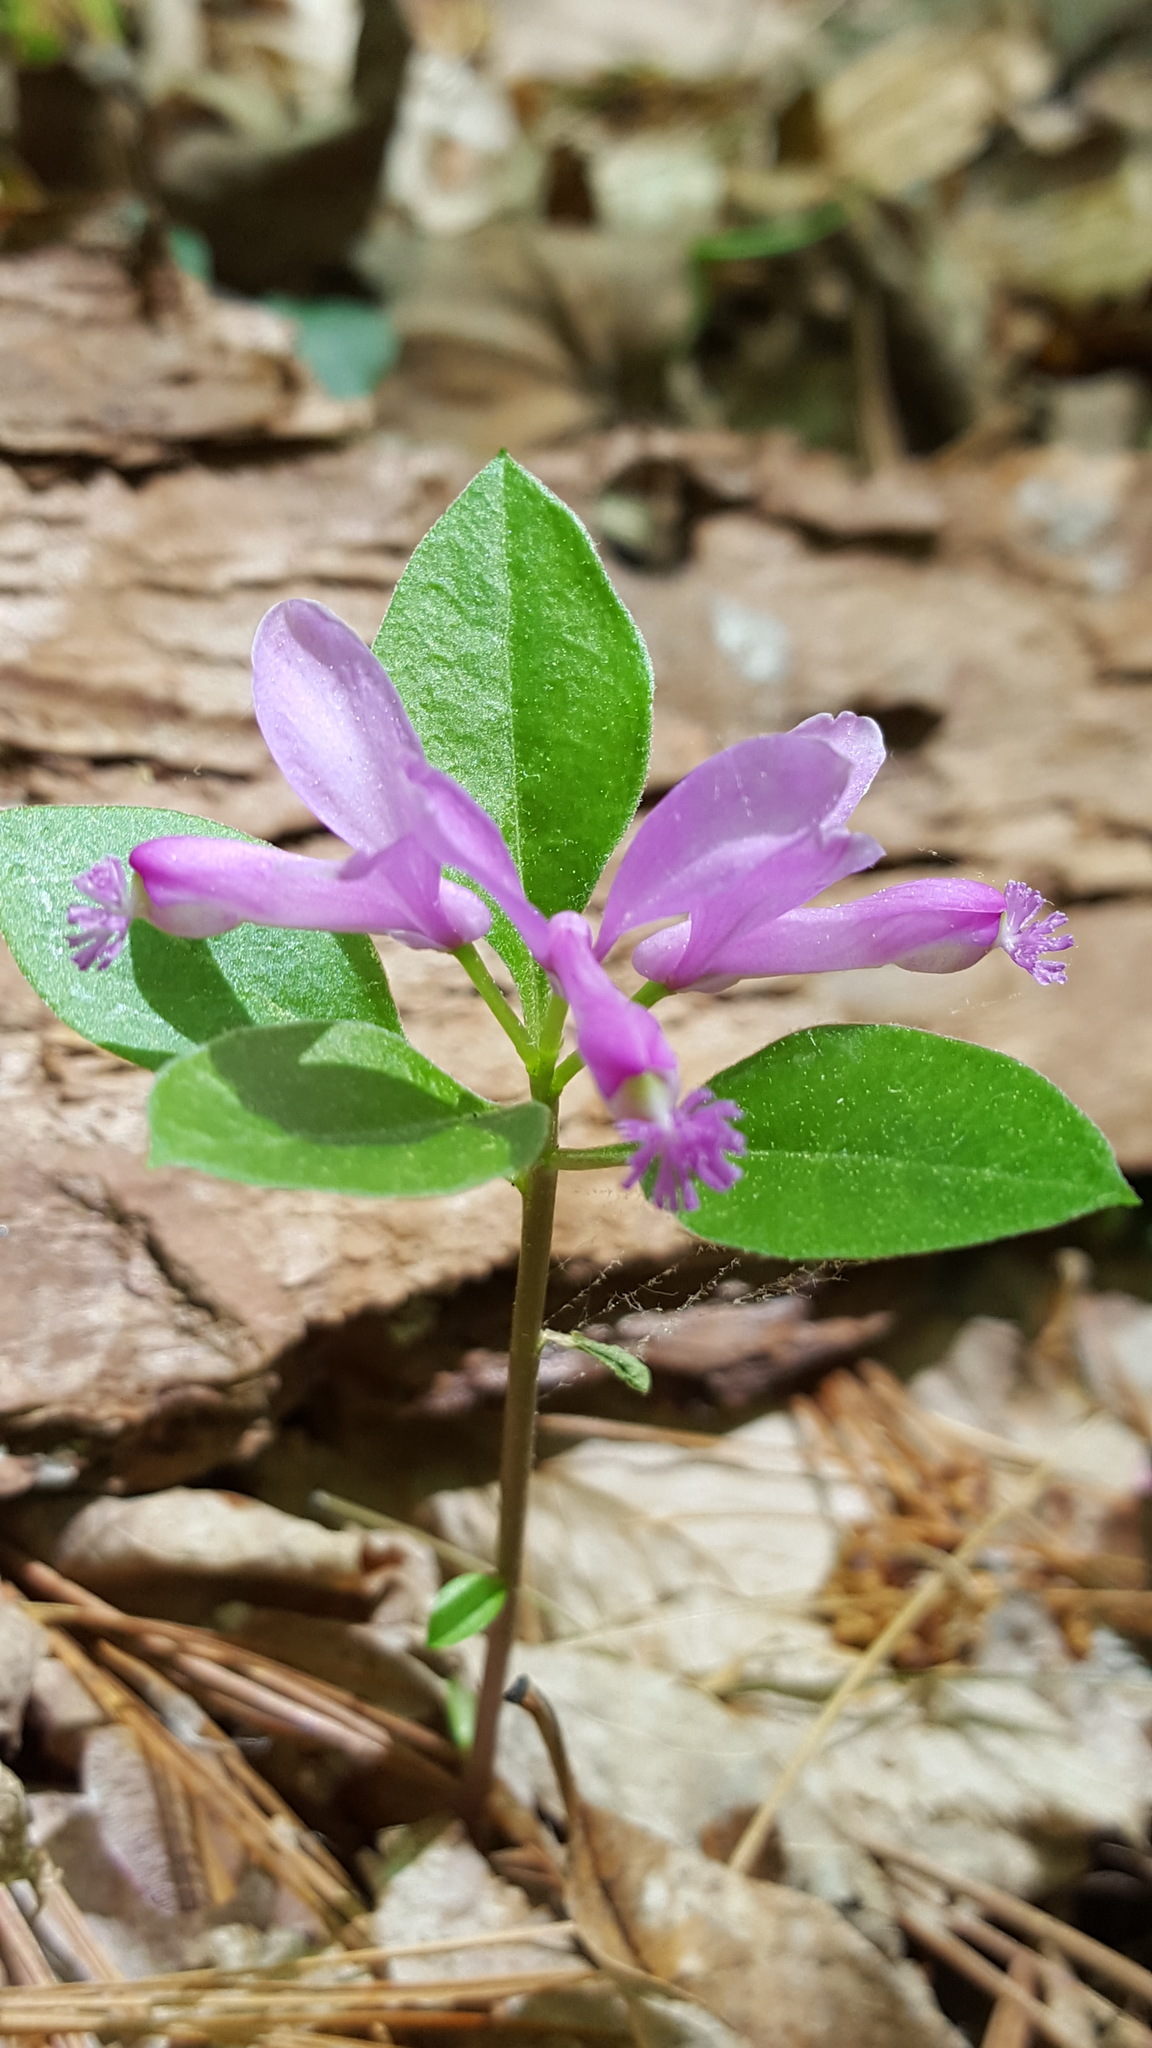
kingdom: Plantae
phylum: Tracheophyta
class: Magnoliopsida
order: Fabales
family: Polygalaceae
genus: Polygaloides
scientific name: Polygaloides paucifolia
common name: Bird-on-the-wing
